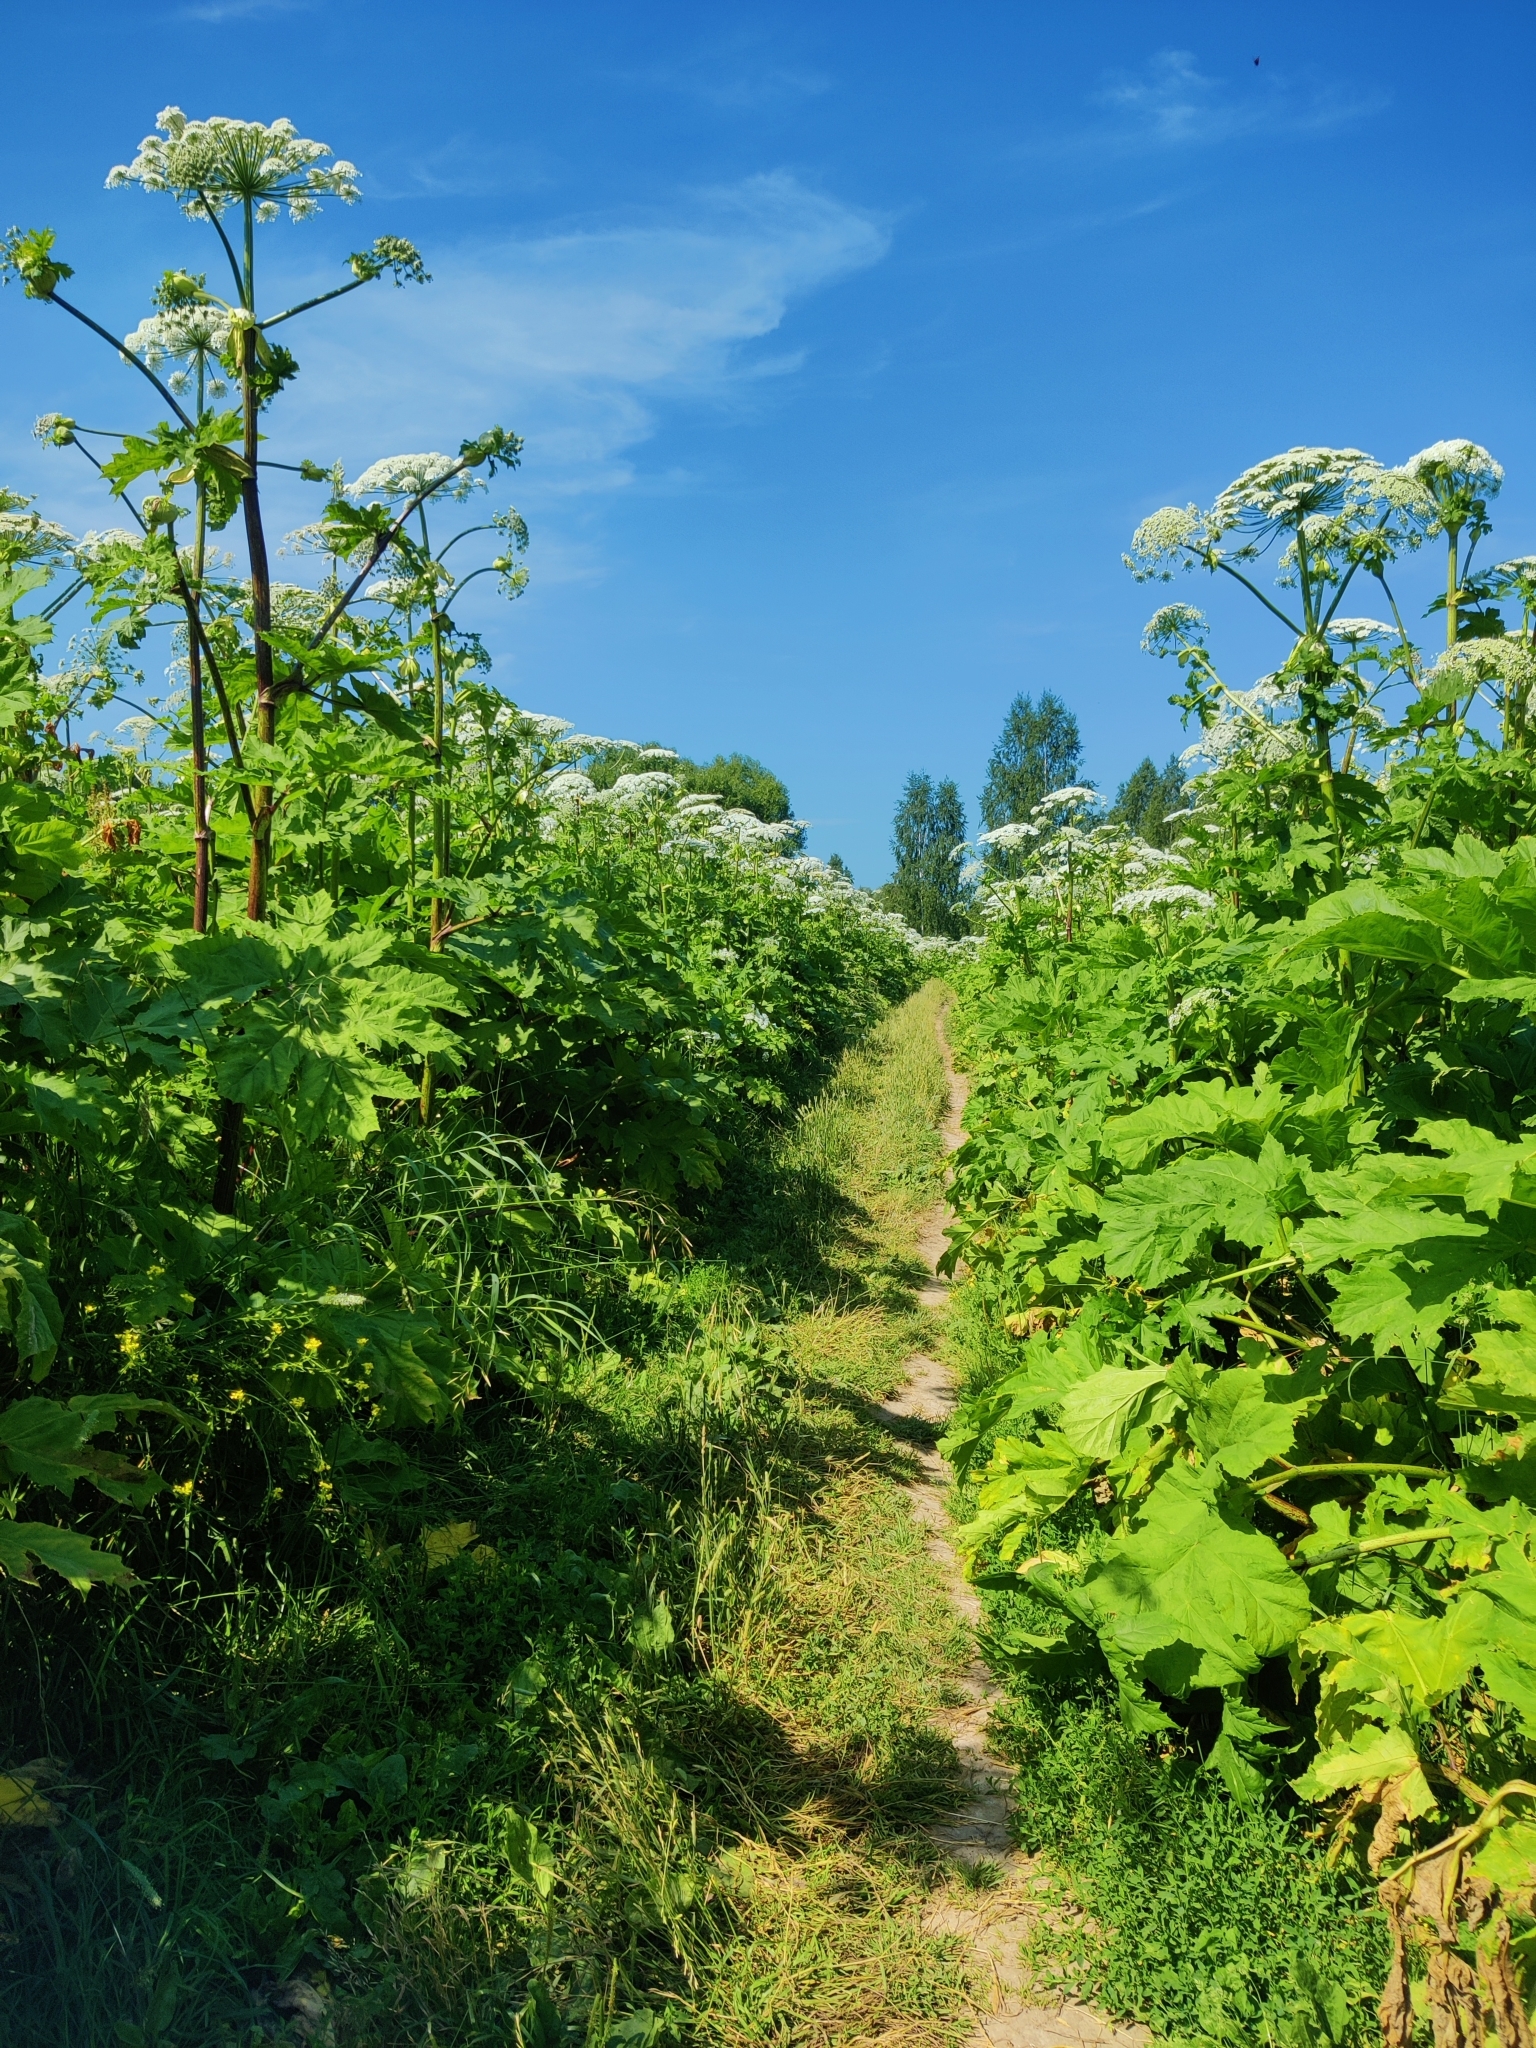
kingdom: Plantae
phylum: Tracheophyta
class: Magnoliopsida
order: Apiales
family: Apiaceae
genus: Heracleum
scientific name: Heracleum sosnowskyi
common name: Sosnowsky's hogweed
